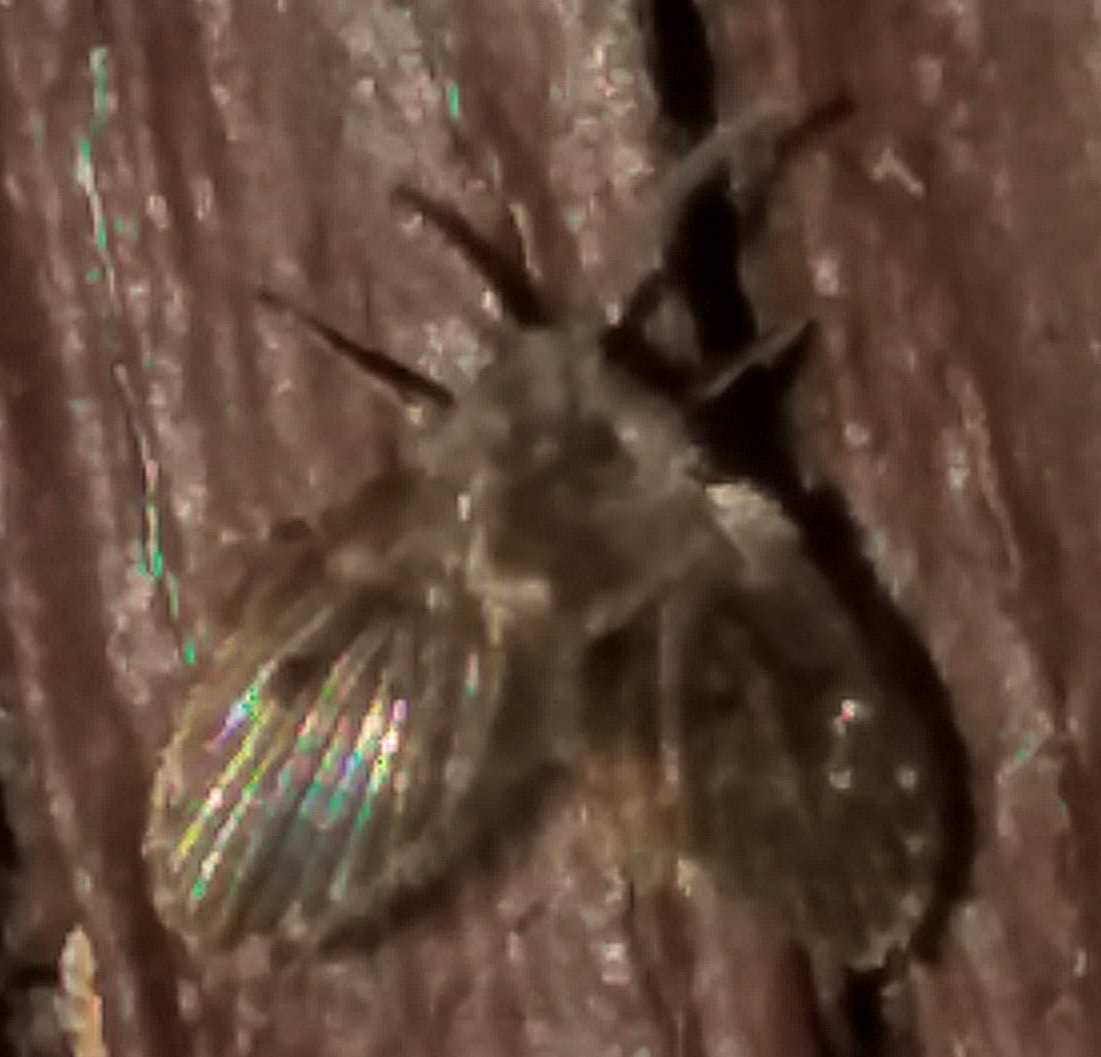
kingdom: Animalia
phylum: Arthropoda
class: Insecta
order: Diptera
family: Psychodidae
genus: Clogmia
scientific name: Clogmia albipunctatus
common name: White-spotted moth fly
